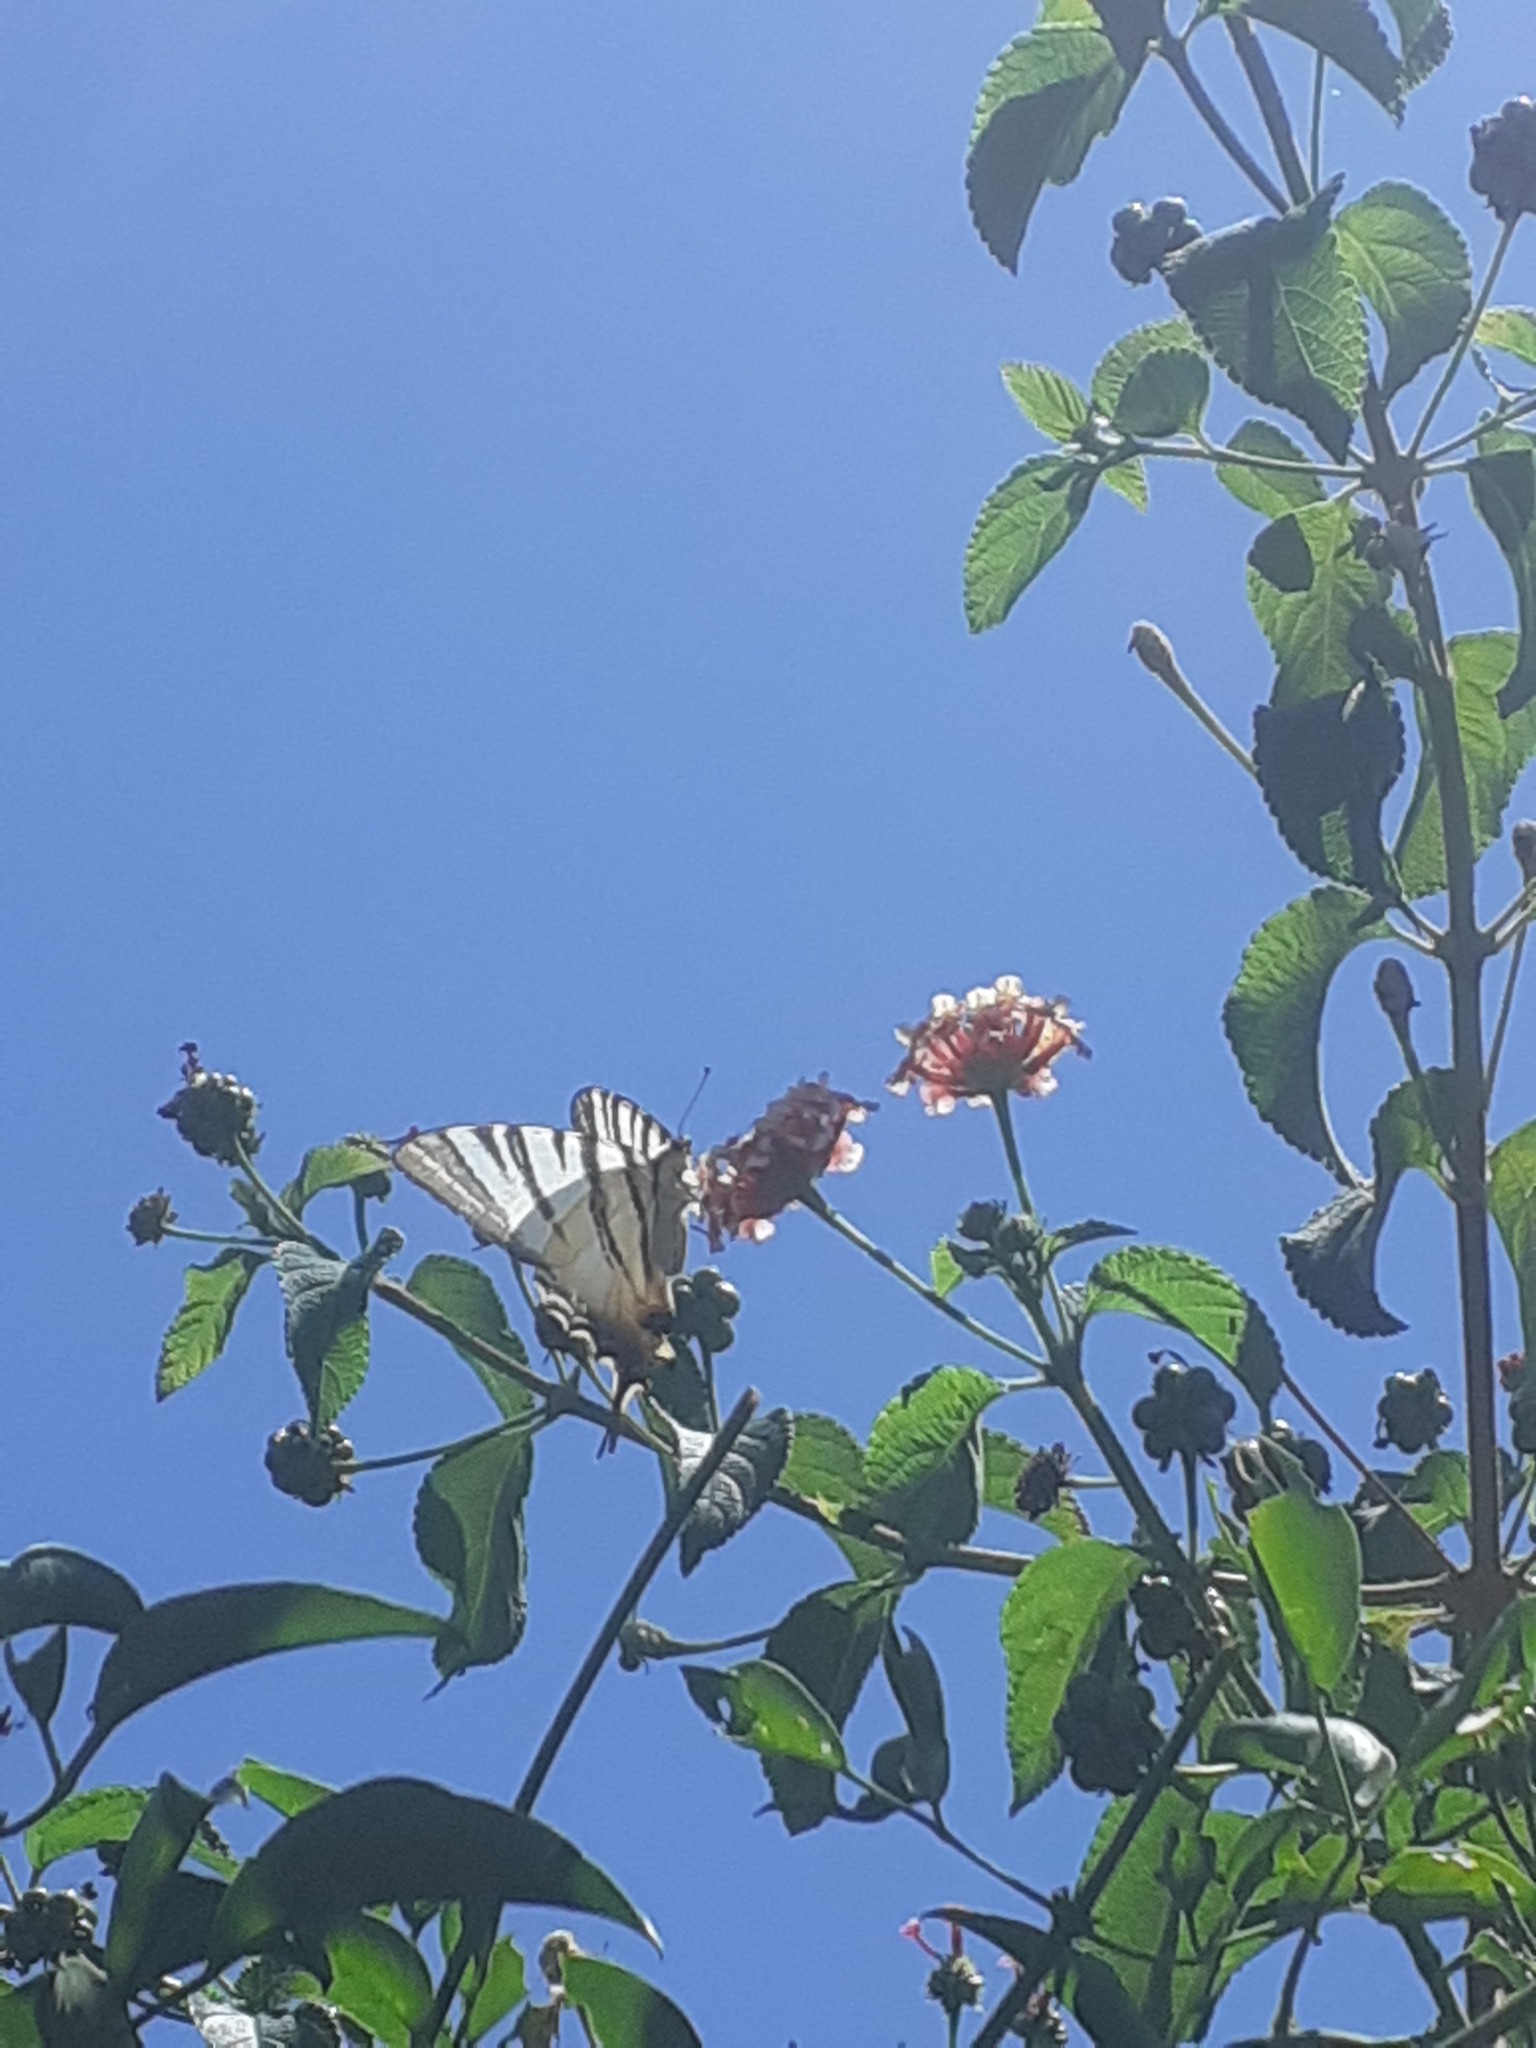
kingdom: Animalia
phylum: Arthropoda
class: Insecta
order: Lepidoptera
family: Papilionidae
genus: Iphiclides
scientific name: Iphiclides podalirius
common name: Scarce swallowtail
